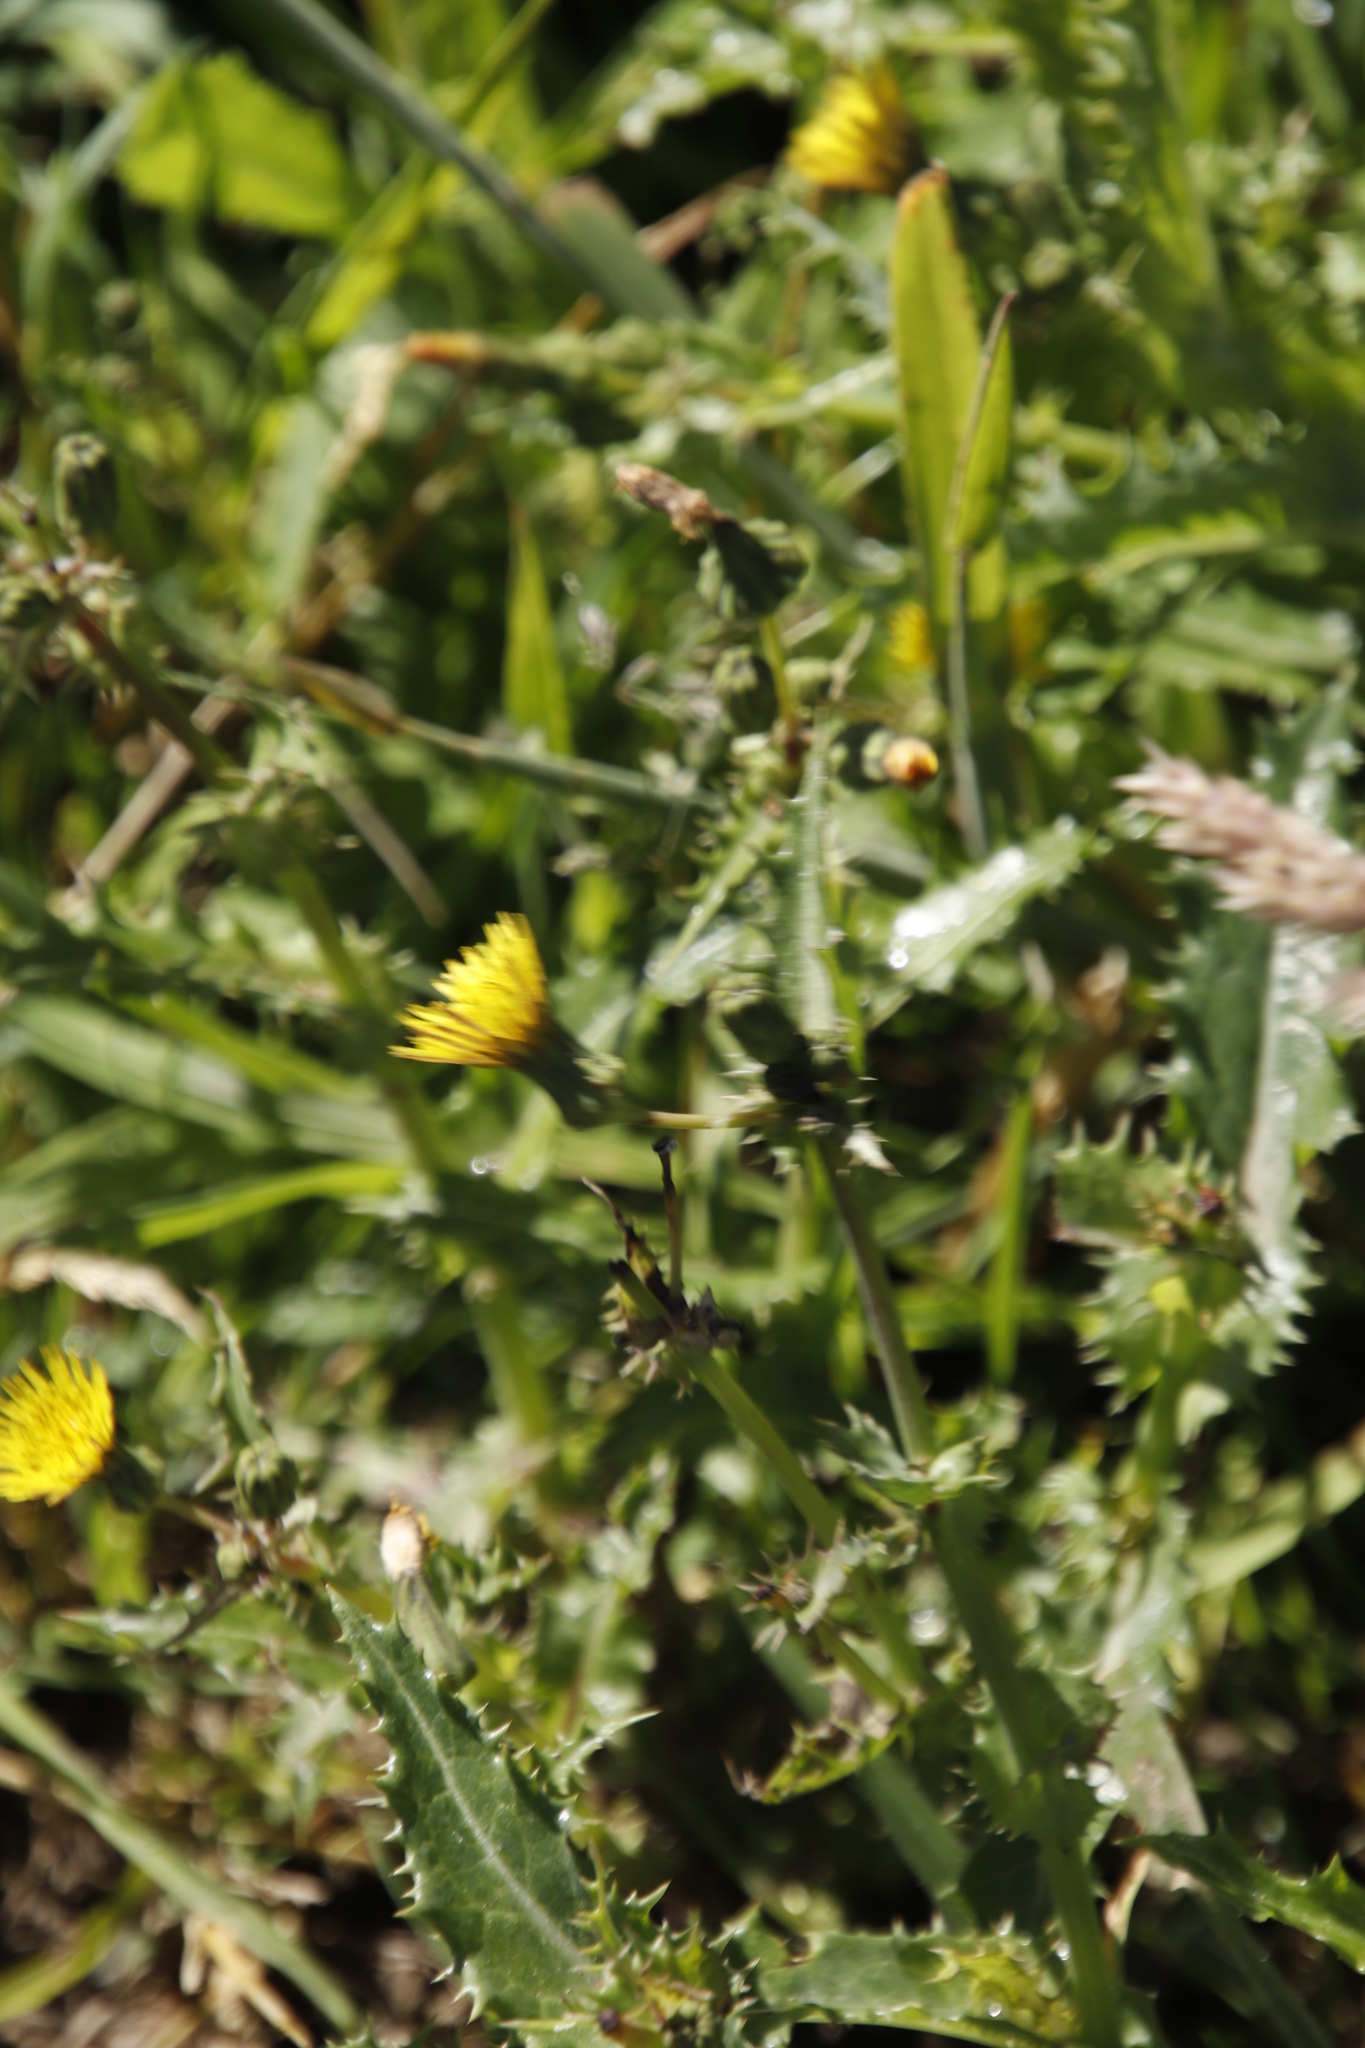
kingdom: Plantae
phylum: Tracheophyta
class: Magnoliopsida
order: Asterales
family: Asteraceae
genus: Sonchus
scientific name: Sonchus asper
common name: Prickly sow-thistle
